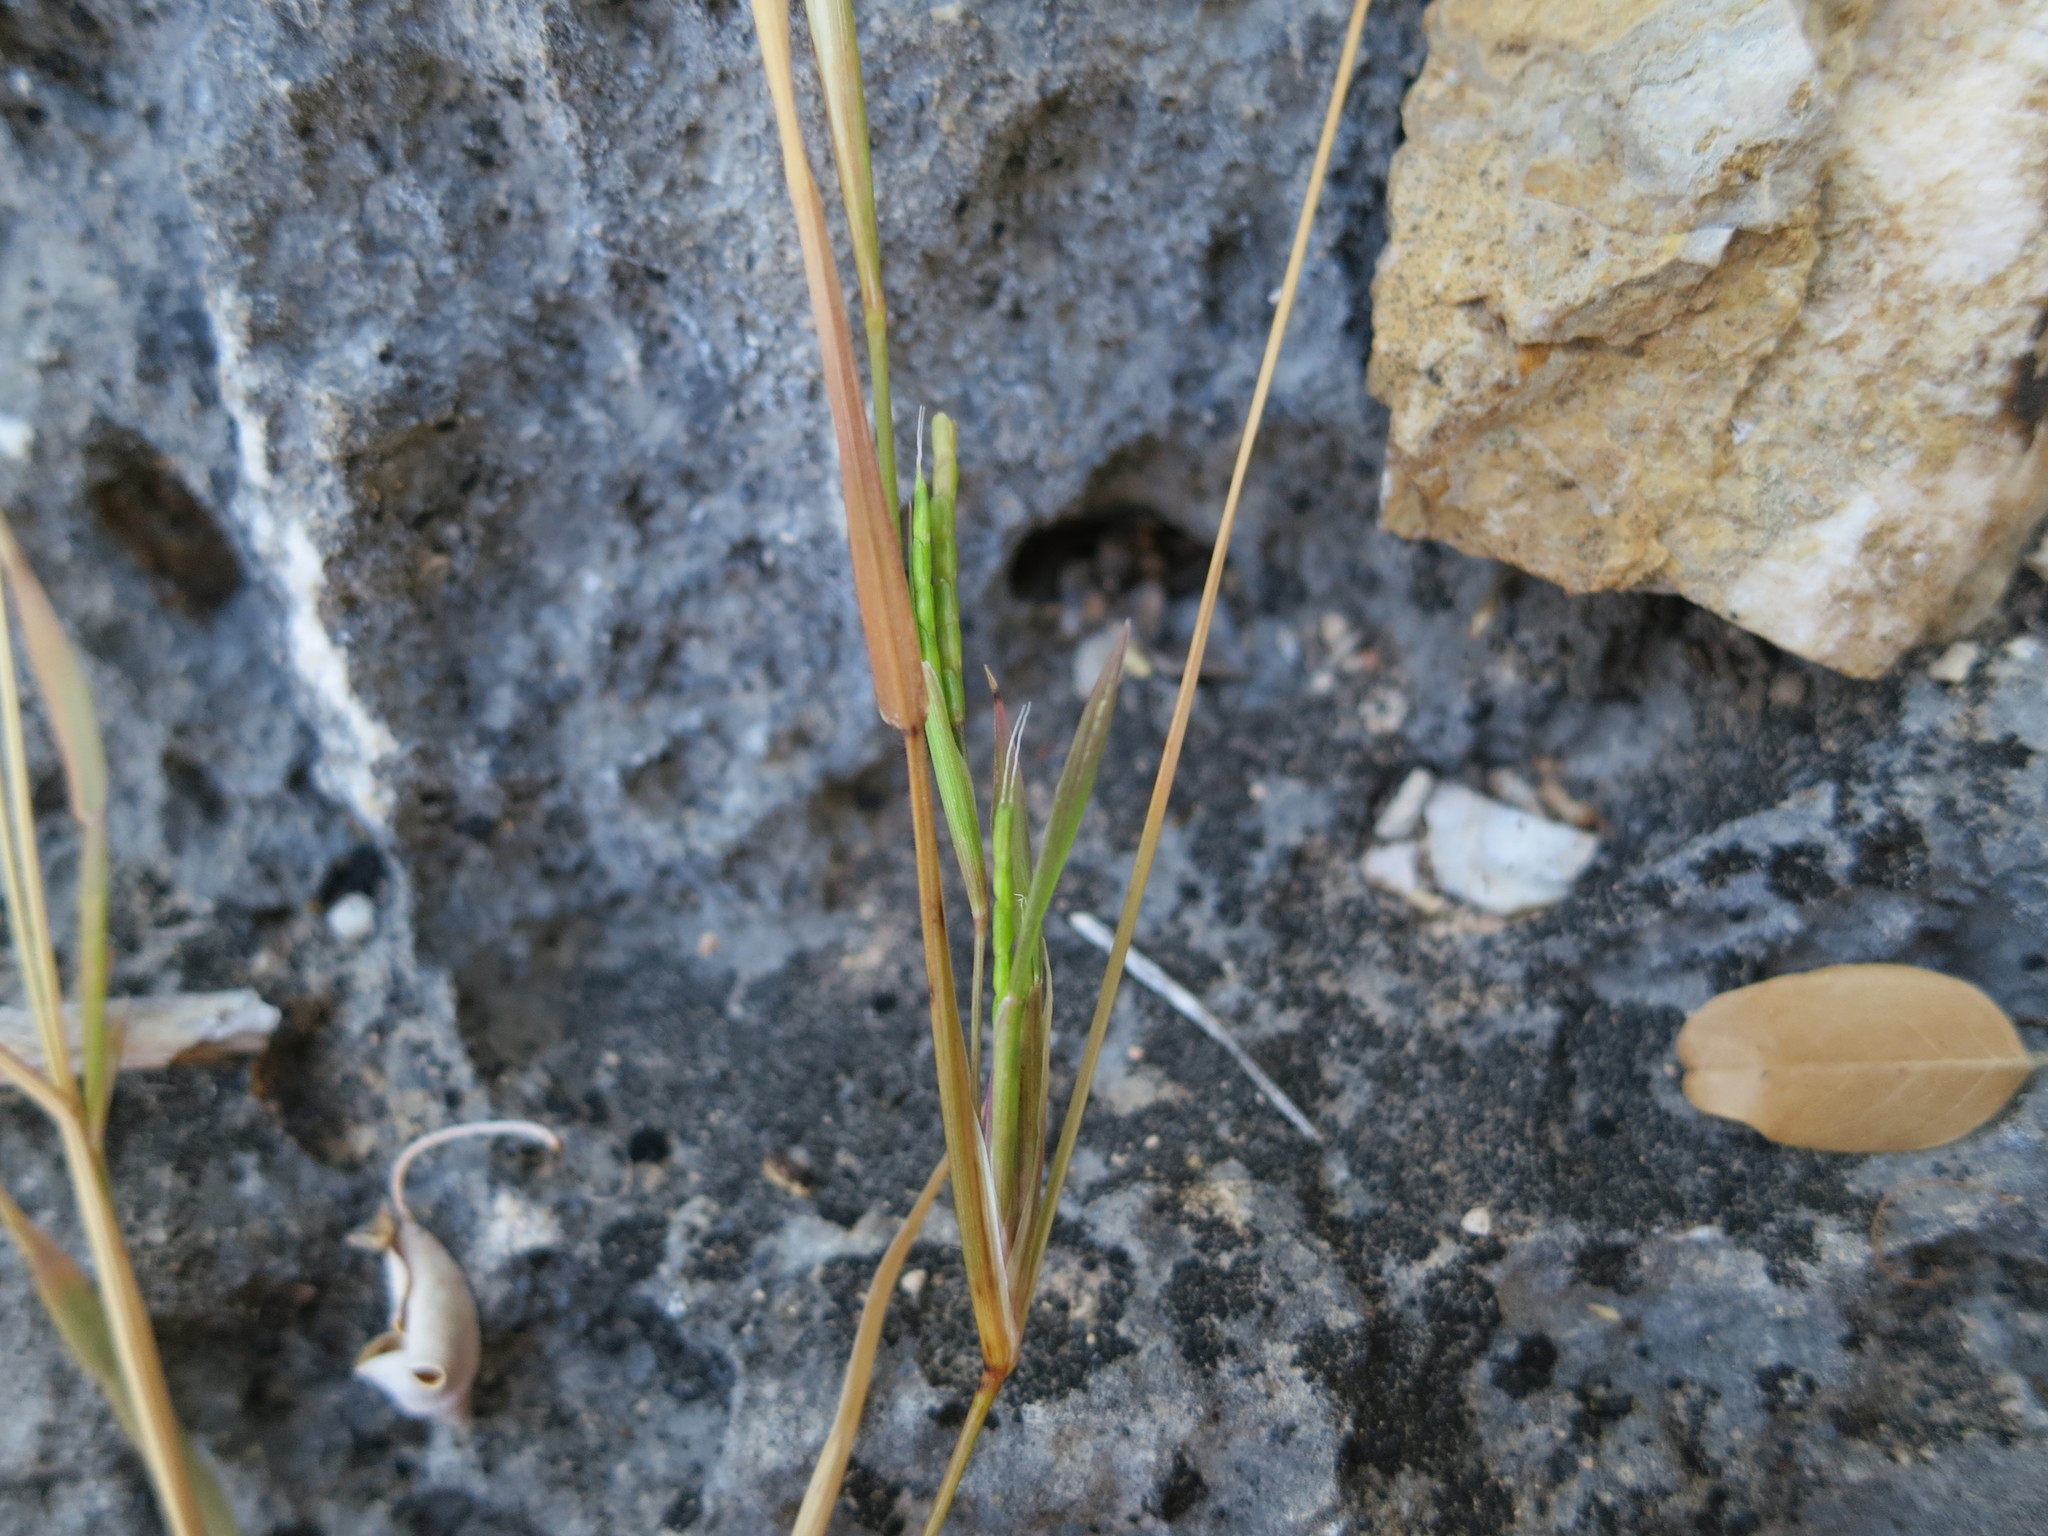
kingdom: Plantae
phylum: Tracheophyta
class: Liliopsida
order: Poales
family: Poaceae
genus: Lepturus
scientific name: Lepturus anadabolavensis
